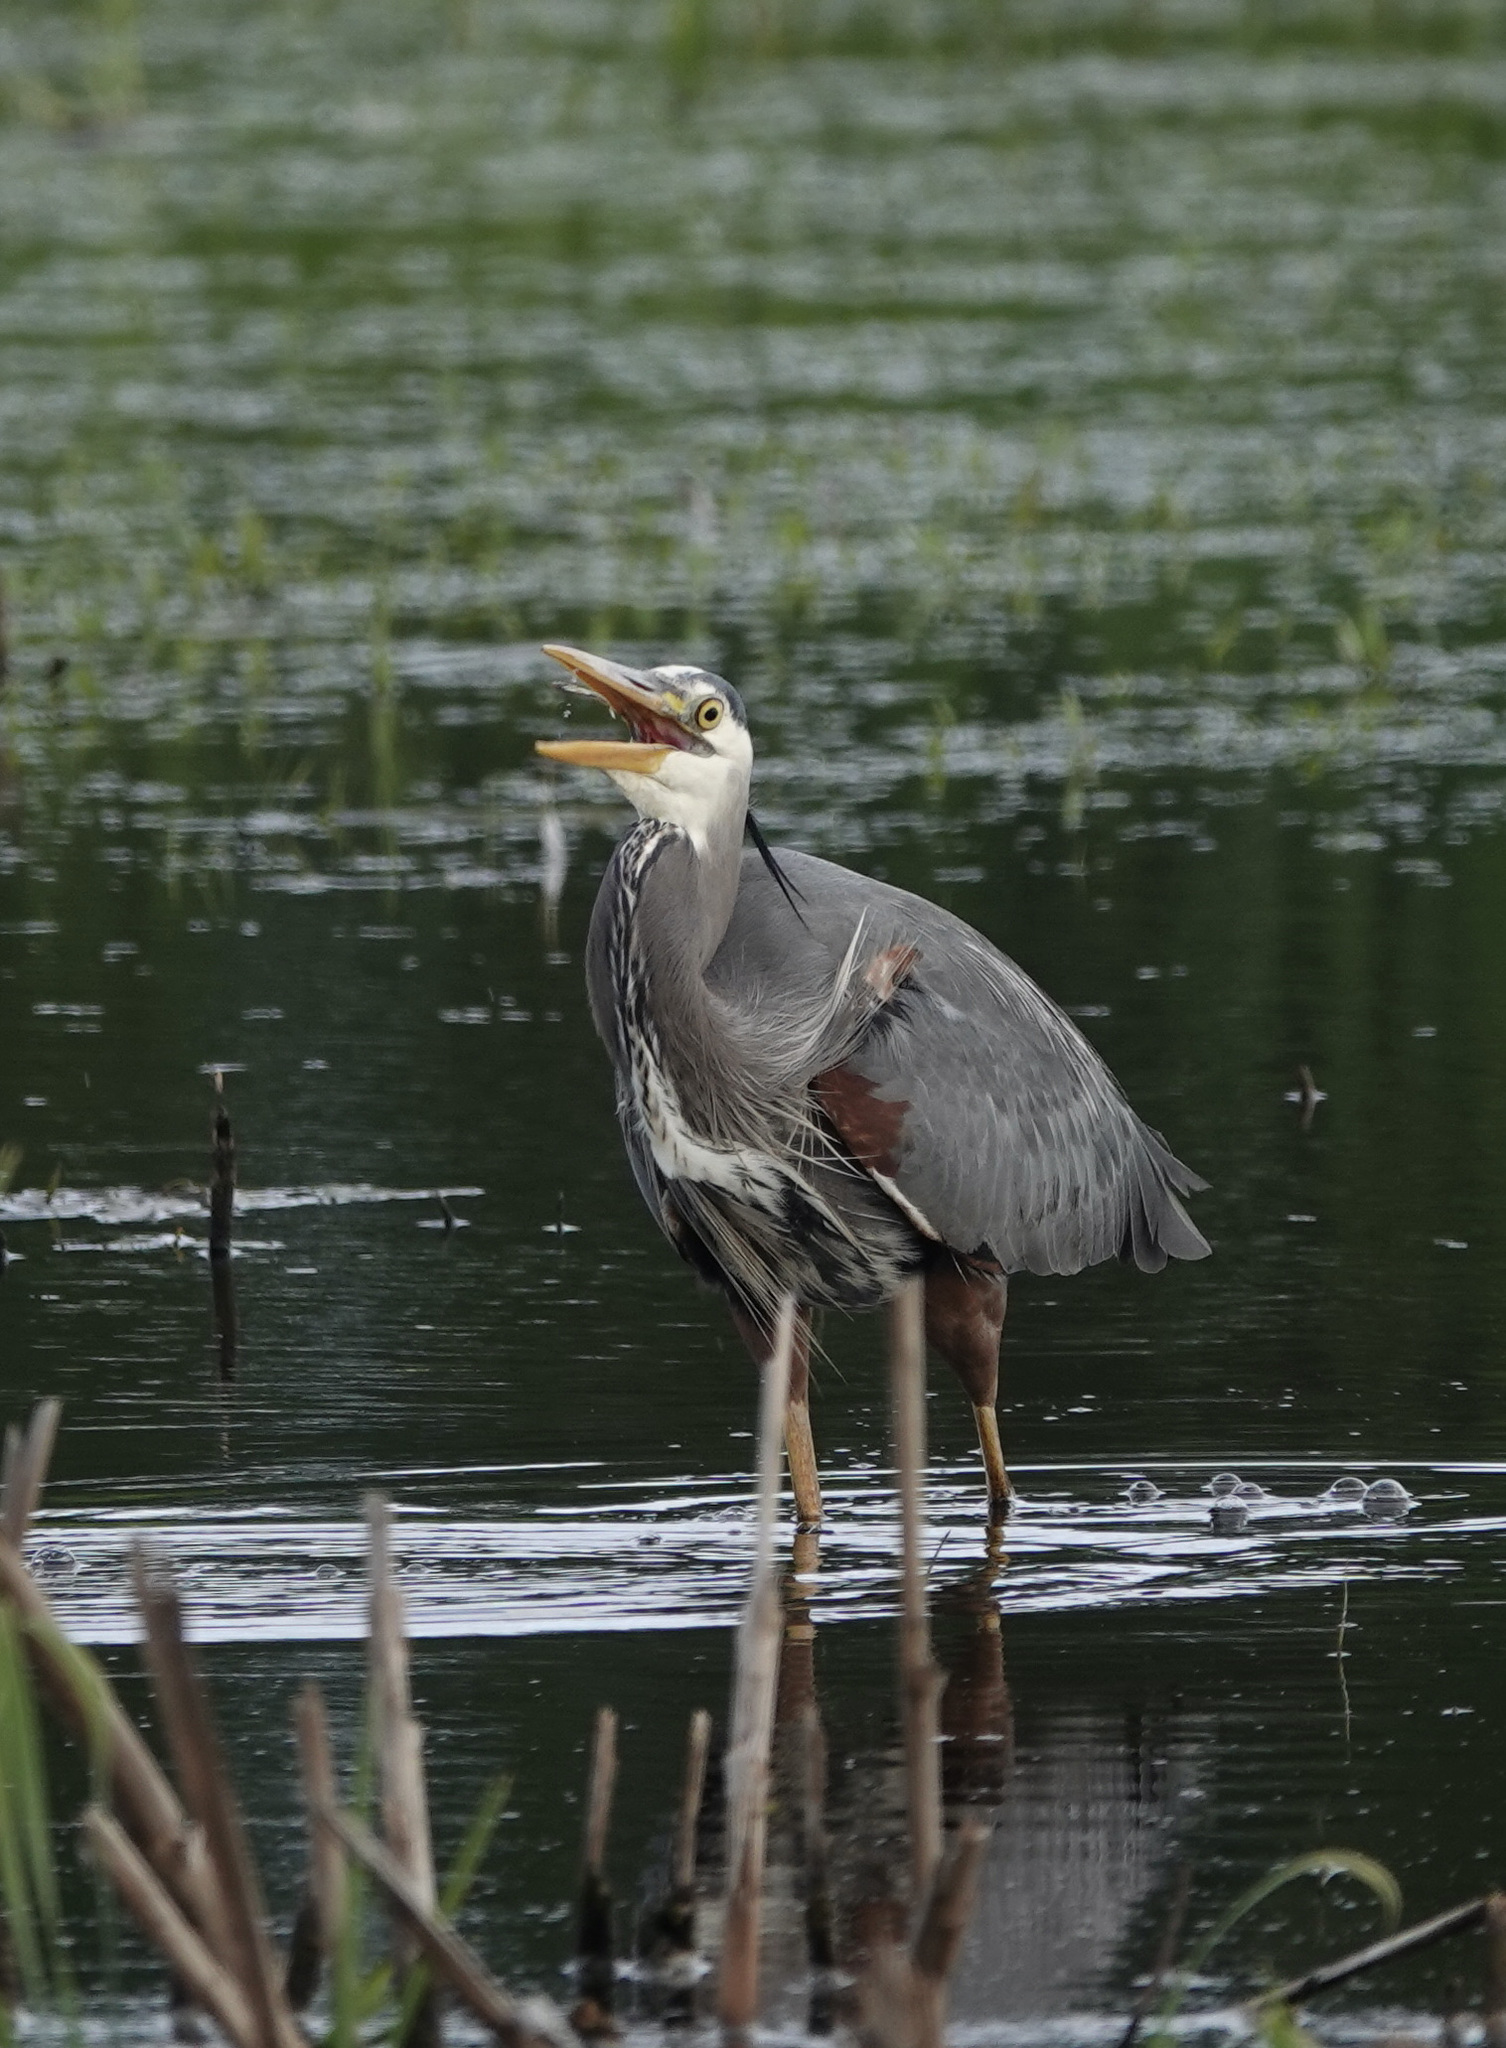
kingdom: Animalia
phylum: Chordata
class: Aves
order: Pelecaniformes
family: Ardeidae
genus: Ardea
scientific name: Ardea herodias
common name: Great blue heron
